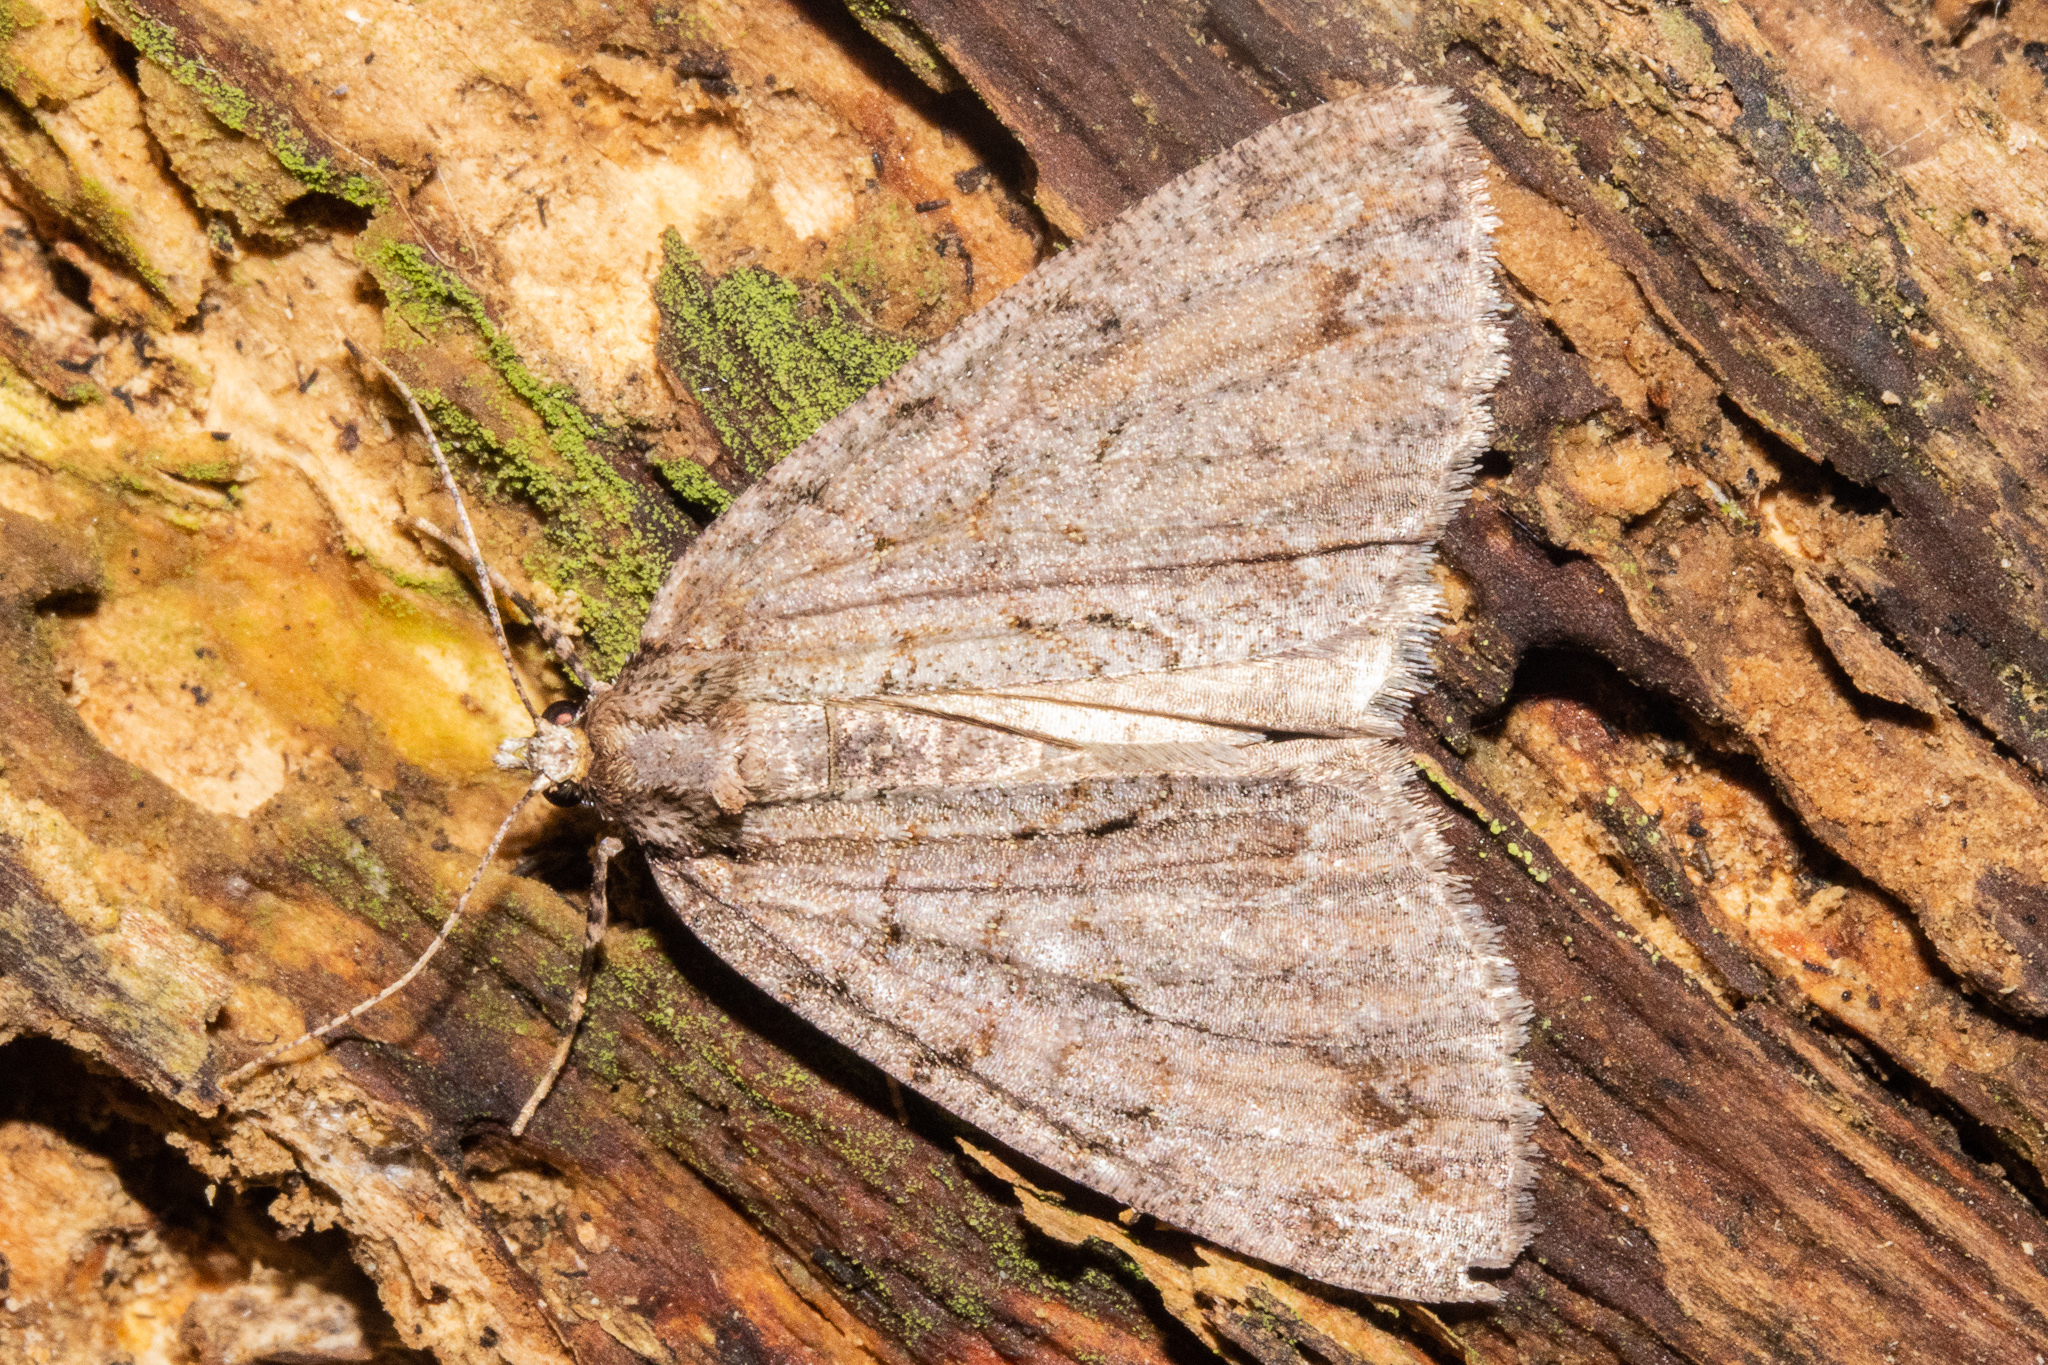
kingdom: Animalia
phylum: Arthropoda
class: Insecta
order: Lepidoptera
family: Geometridae
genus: Pseudocoremia
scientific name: Pseudocoremia suavis
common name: Common forest looper
